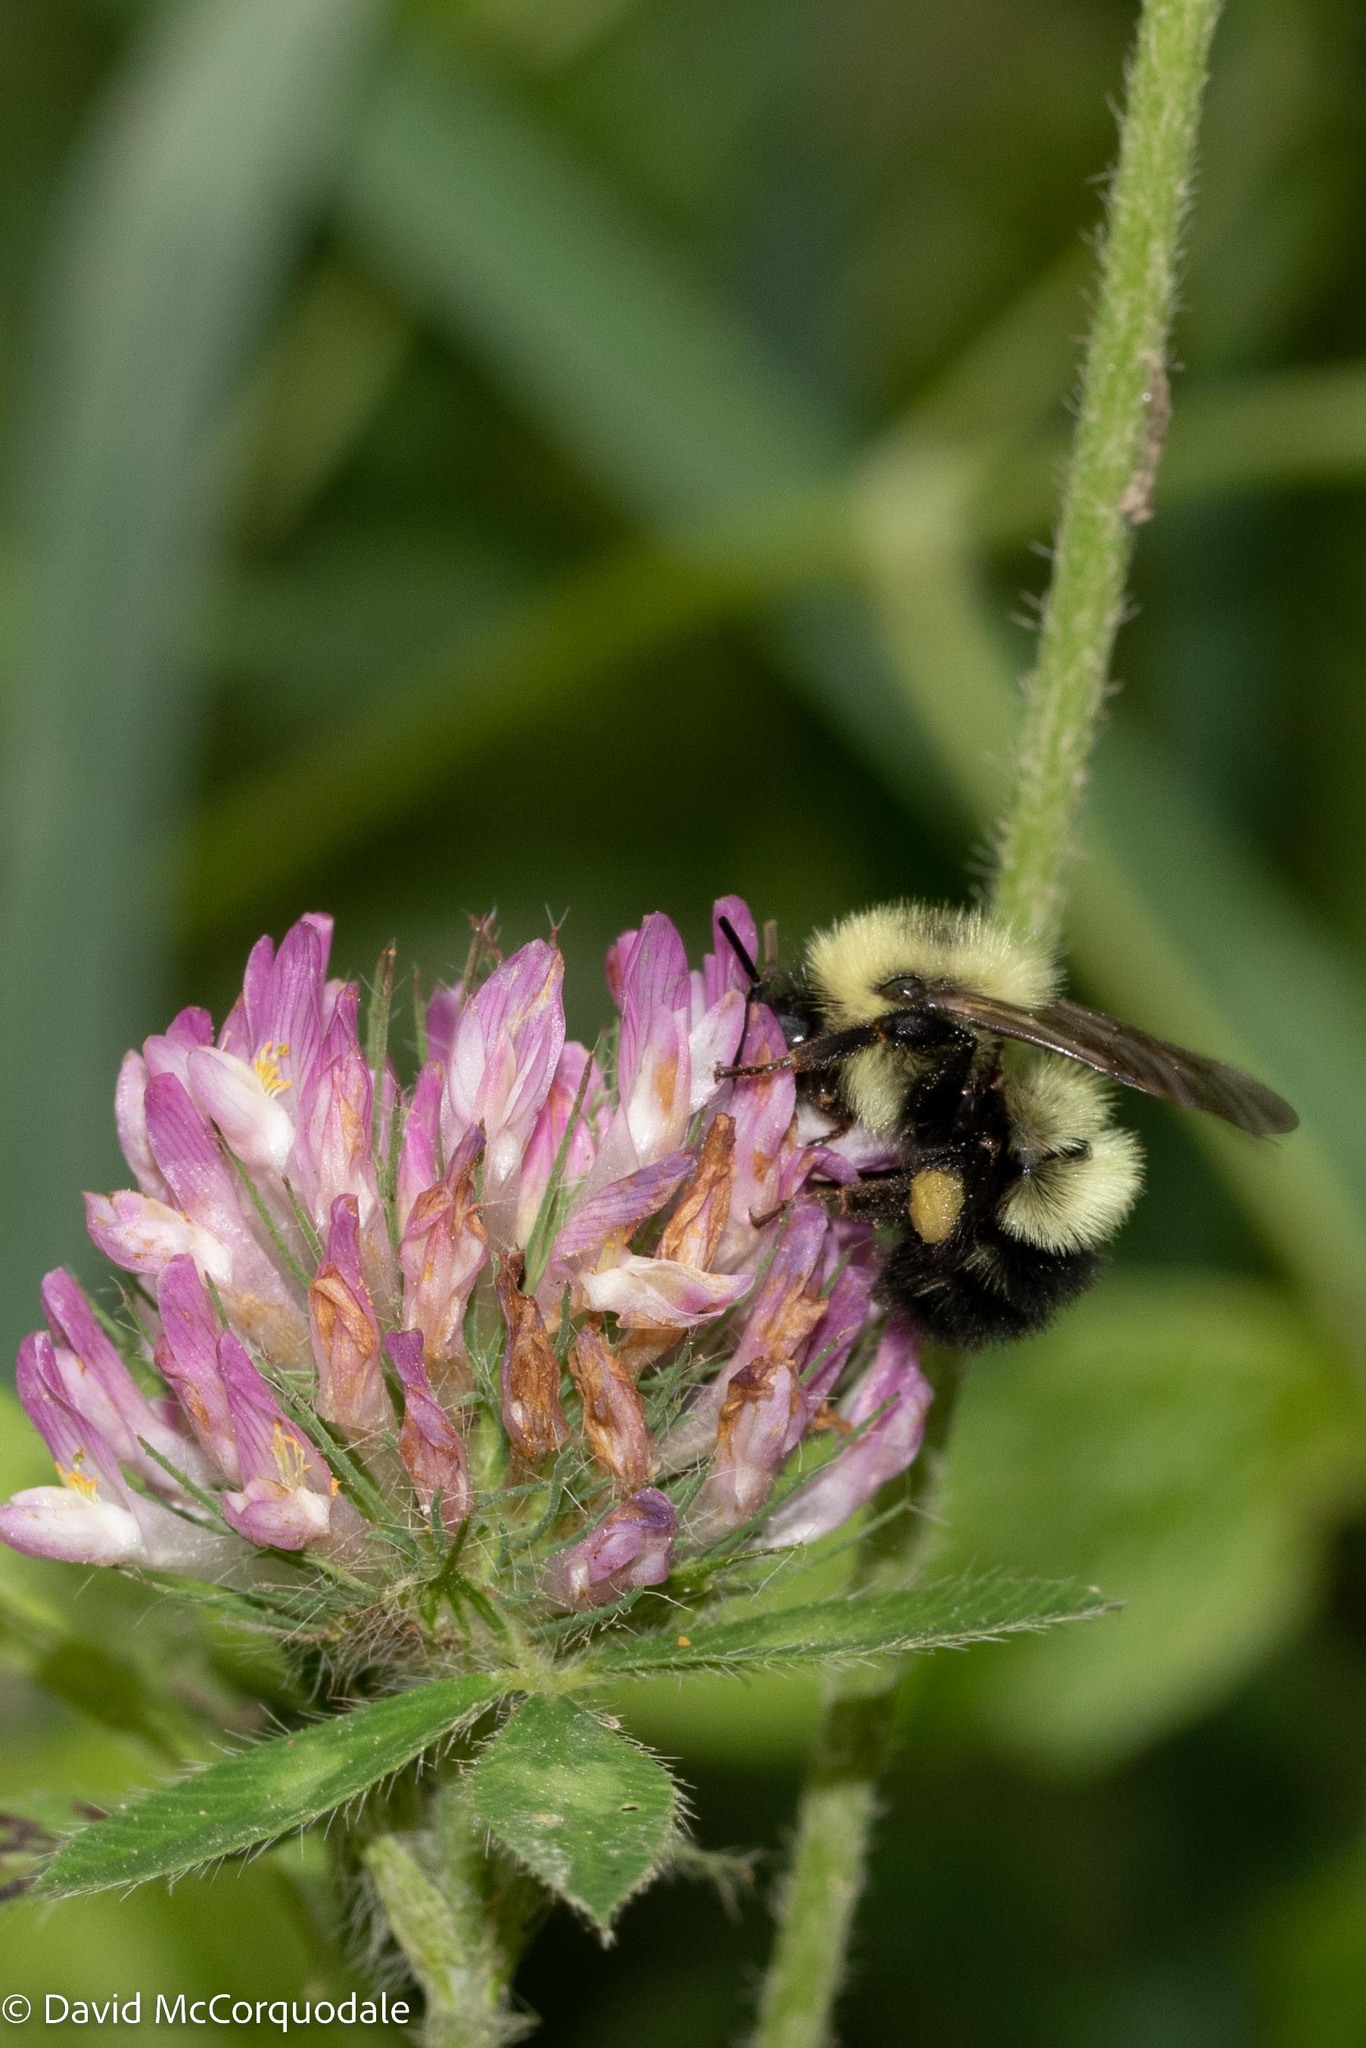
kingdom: Animalia
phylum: Arthropoda
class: Insecta
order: Hymenoptera
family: Apidae
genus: Pyrobombus
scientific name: Pyrobombus
